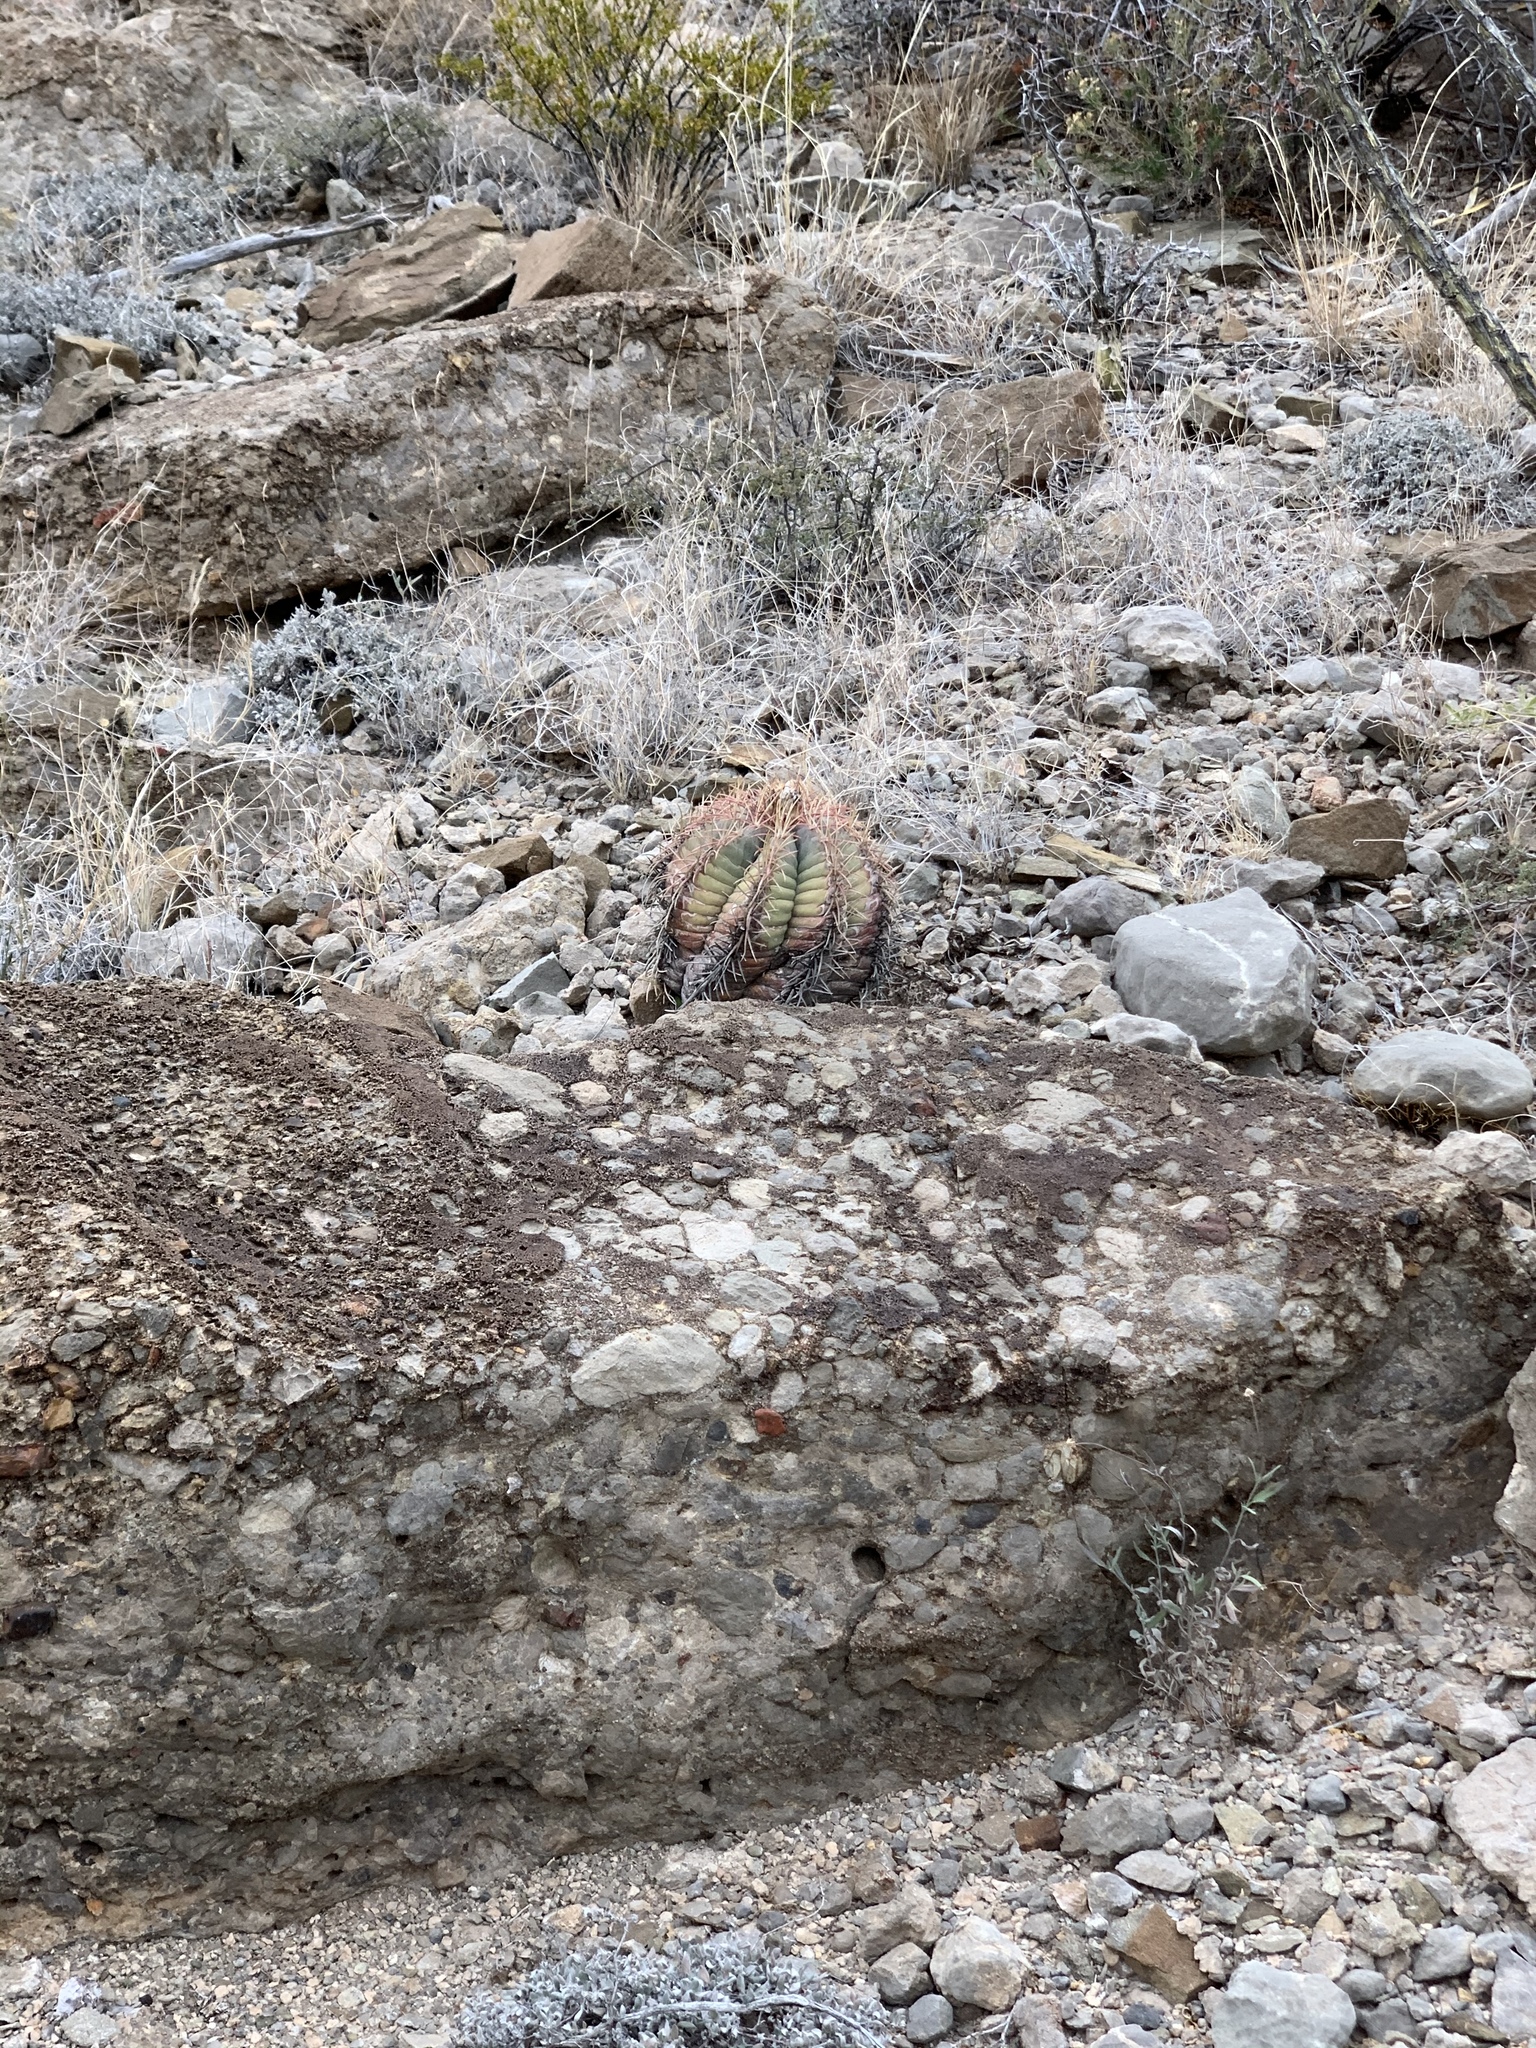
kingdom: Plantae
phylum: Tracheophyta
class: Magnoliopsida
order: Caryophyllales
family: Cactaceae
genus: Echinocactus
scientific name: Echinocactus horizonthalonius
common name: Devilshead
